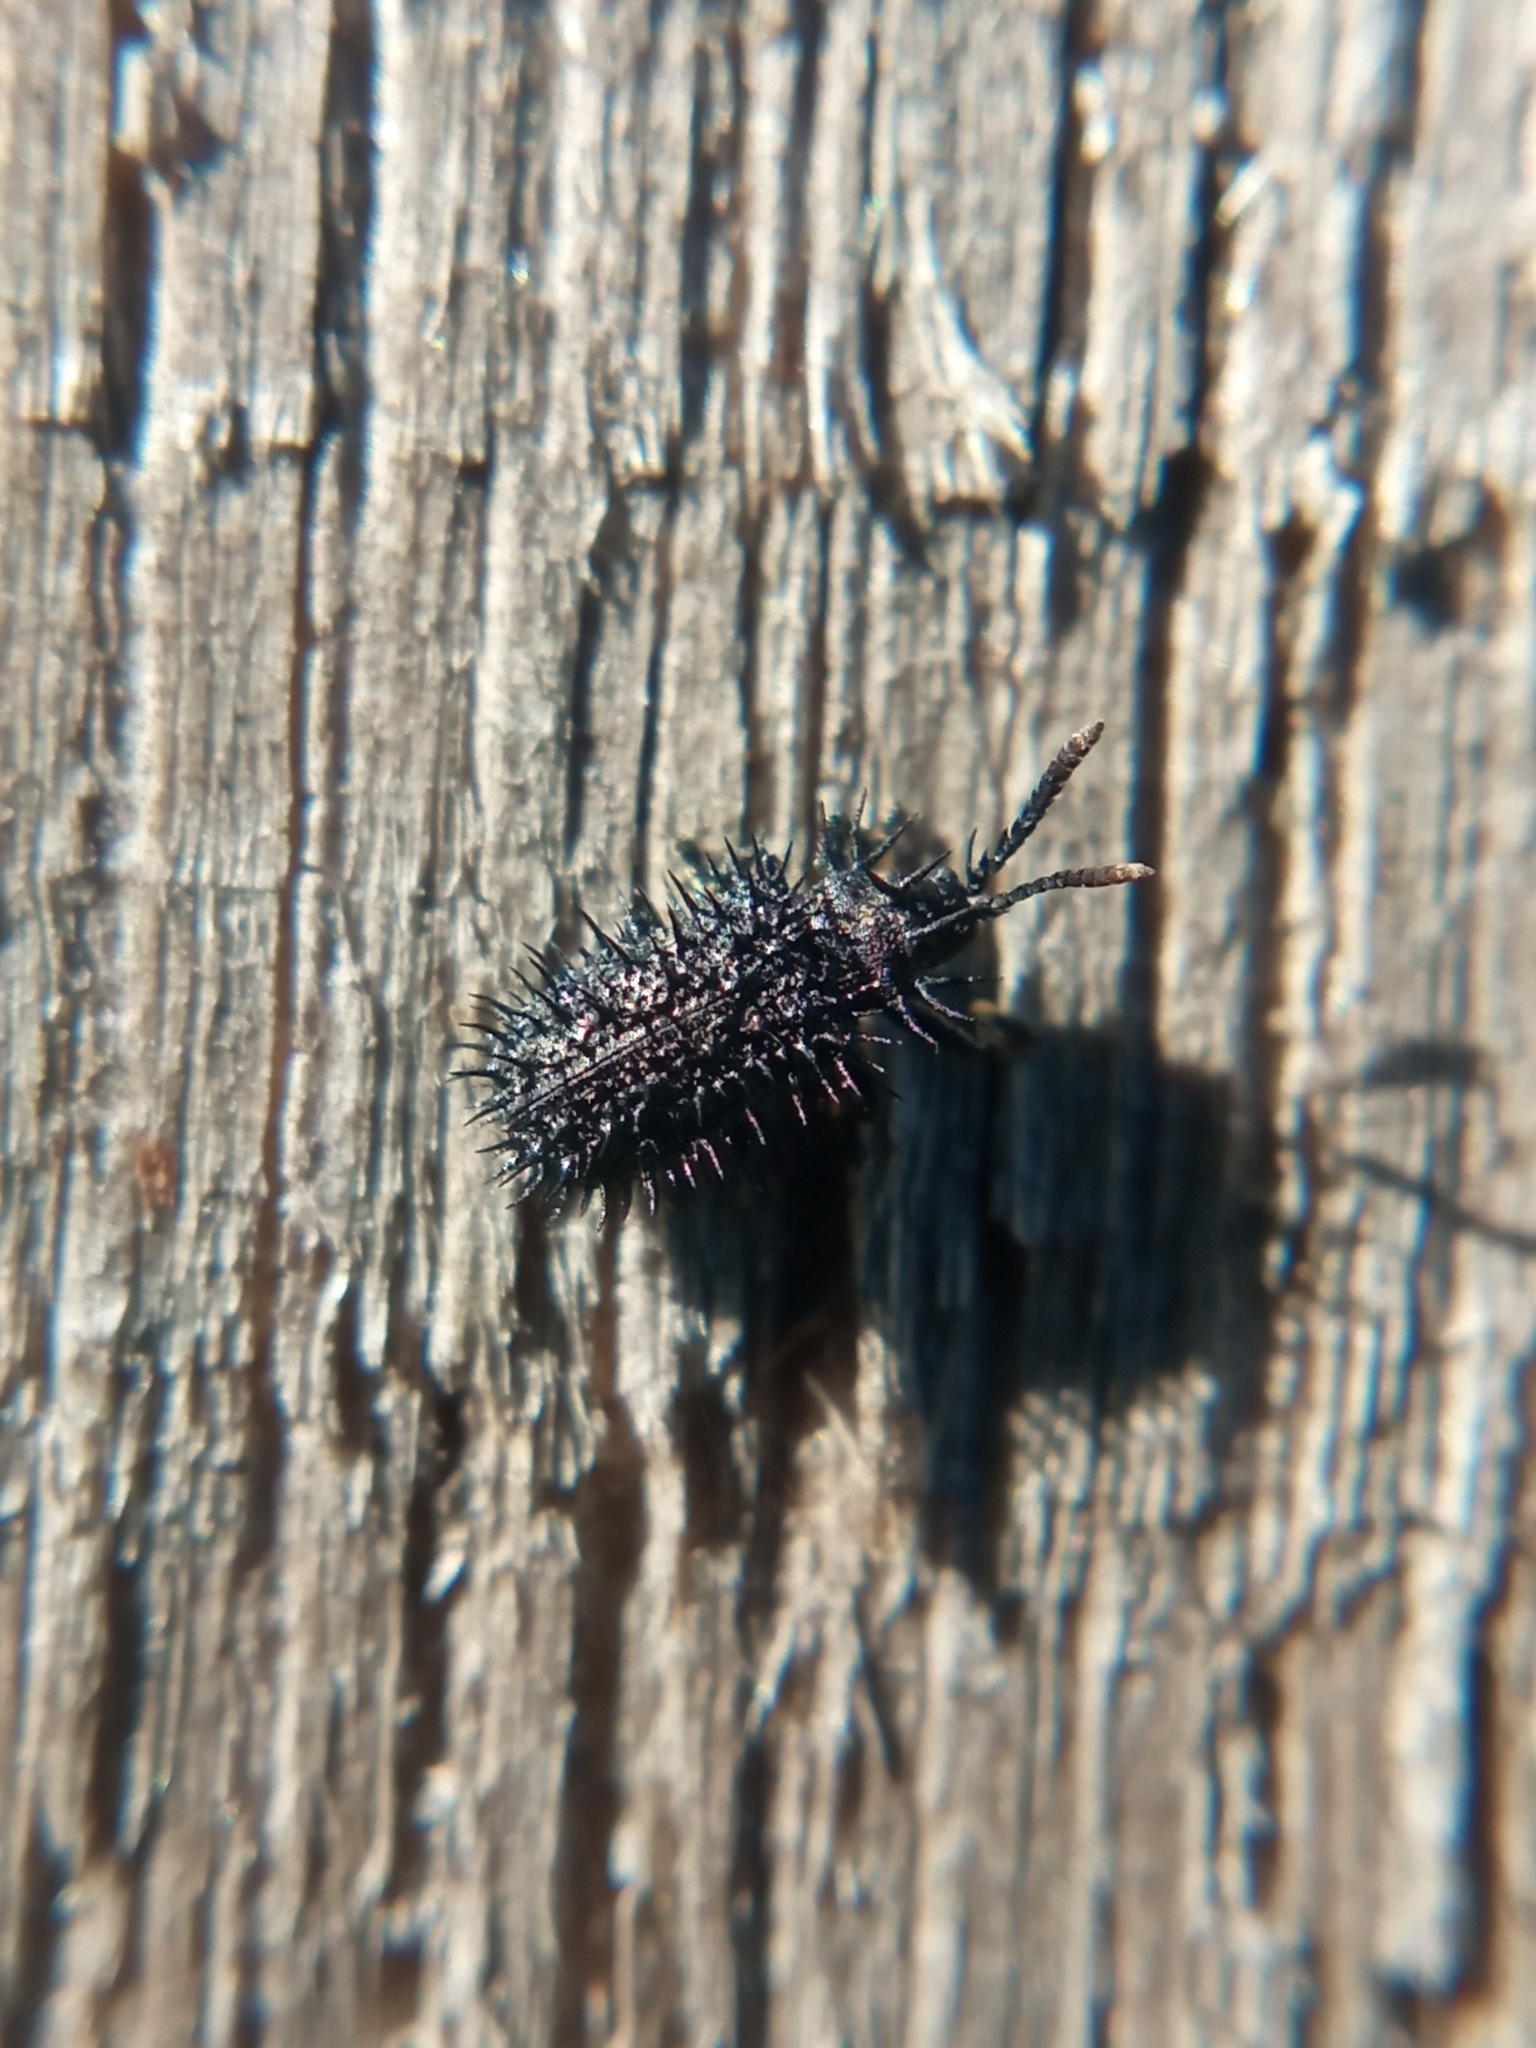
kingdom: Animalia
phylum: Arthropoda
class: Insecta
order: Coleoptera
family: Chrysomelidae
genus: Hispa
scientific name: Hispa atra
